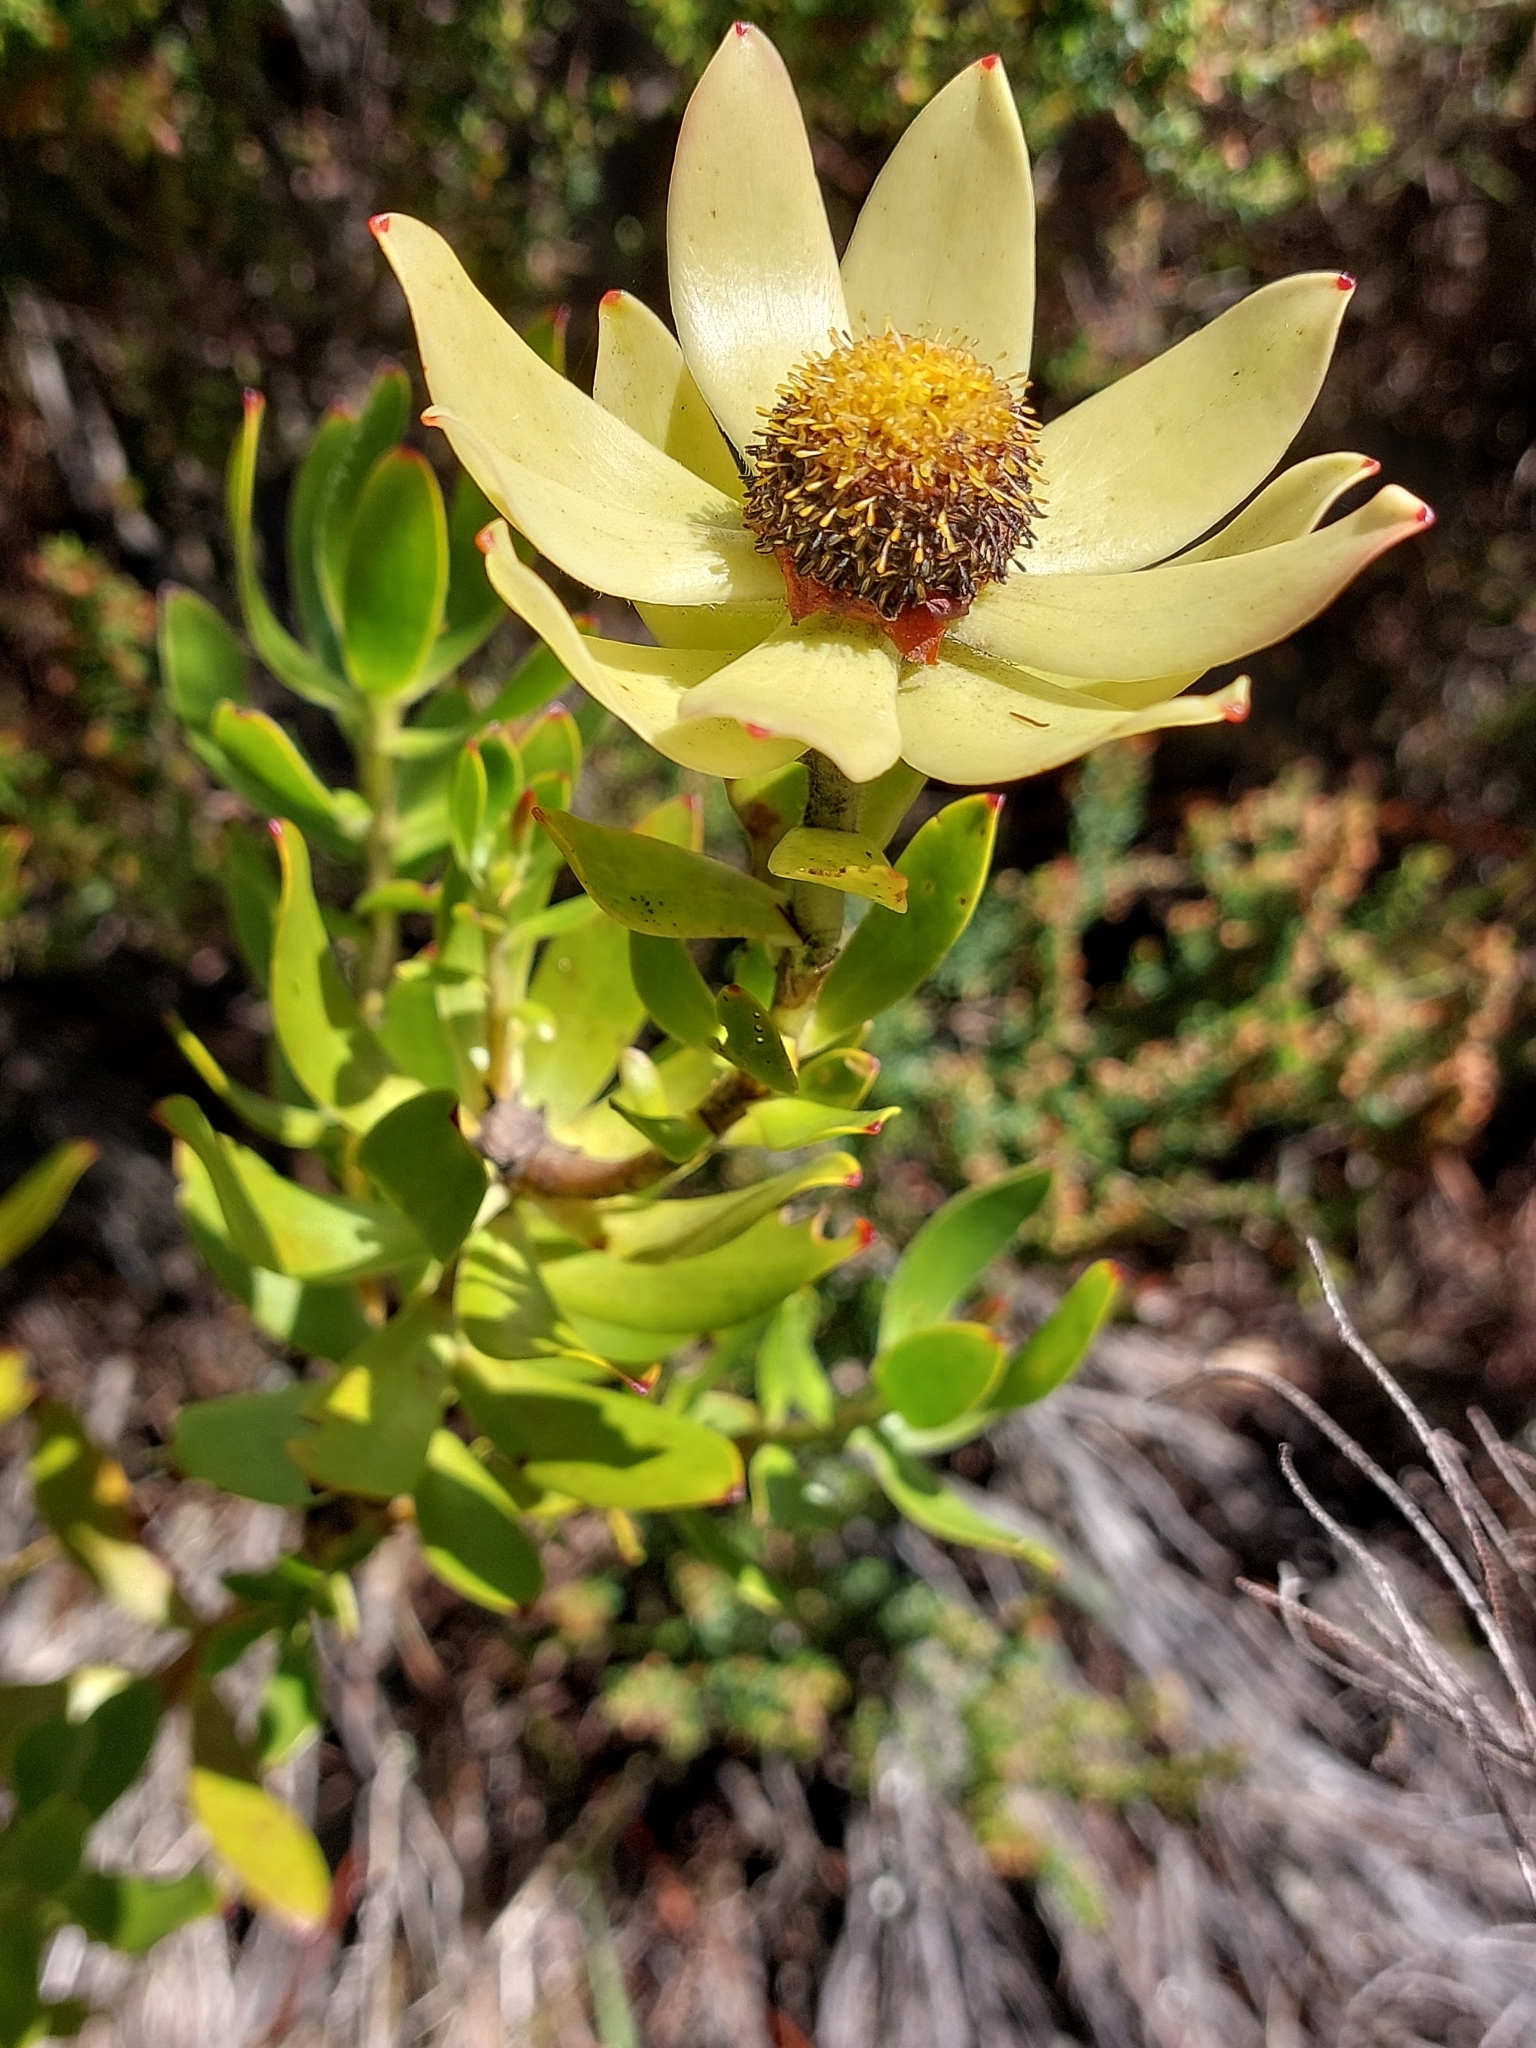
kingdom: Plantae
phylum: Tracheophyta
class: Magnoliopsida
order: Proteales
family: Proteaceae
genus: Leucadendron
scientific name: Leucadendron strobilinum
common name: Mountain rose
